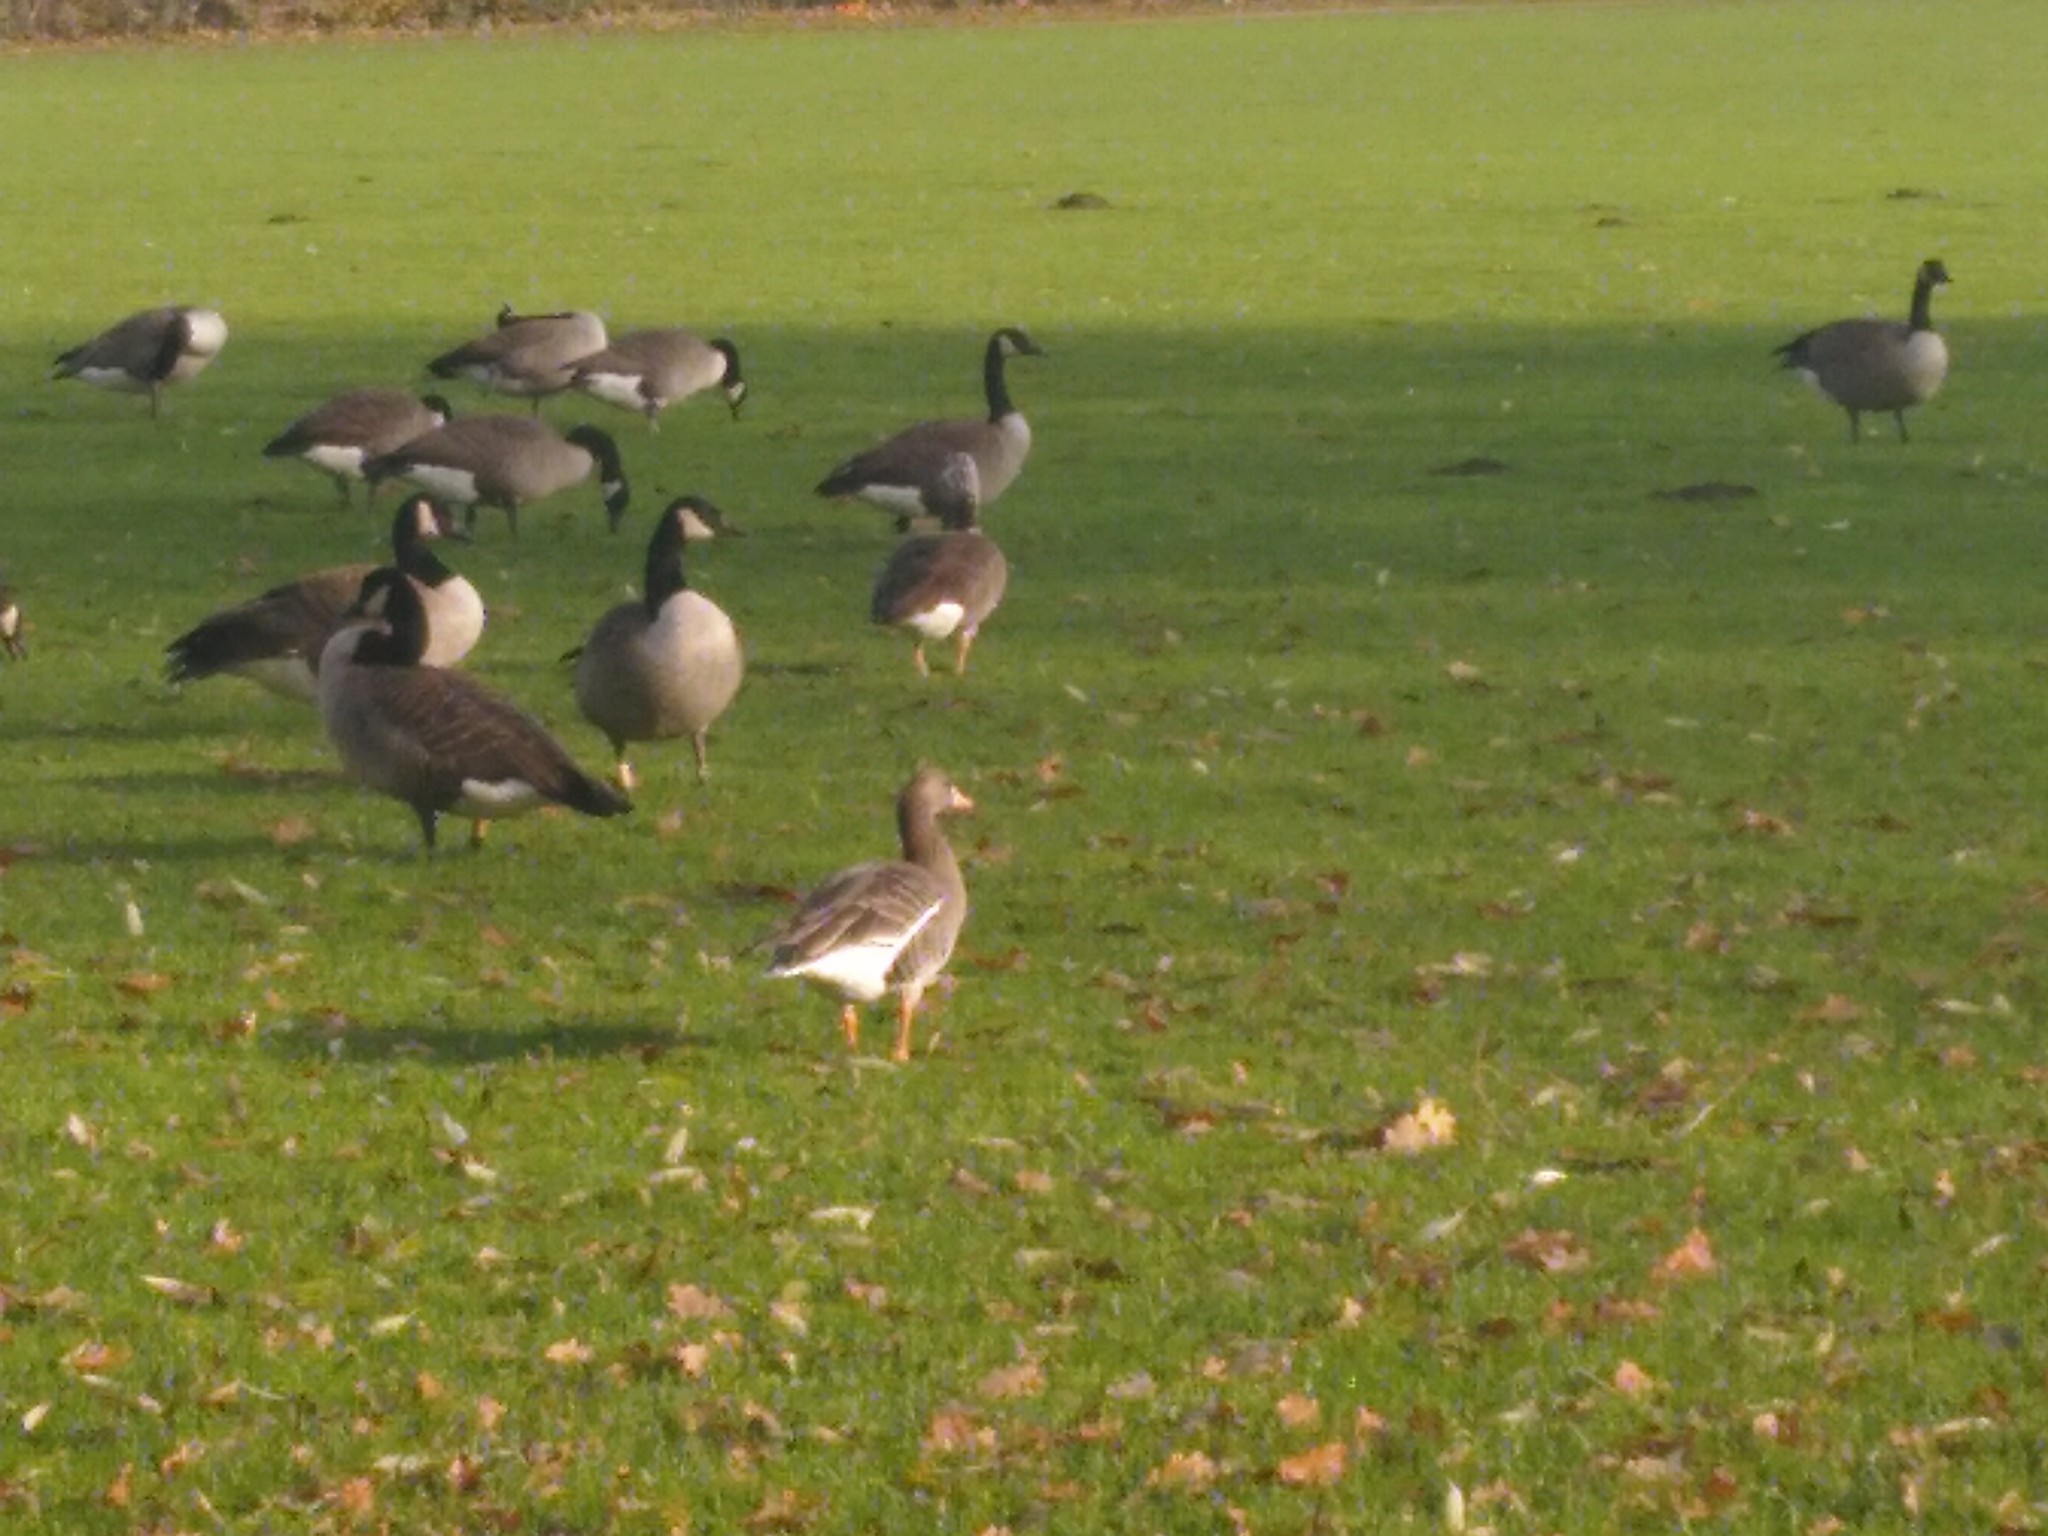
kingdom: Animalia
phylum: Chordata
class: Aves
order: Anseriformes
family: Anatidae
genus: Anser
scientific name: Anser albifrons
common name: Greater white-fronted goose
